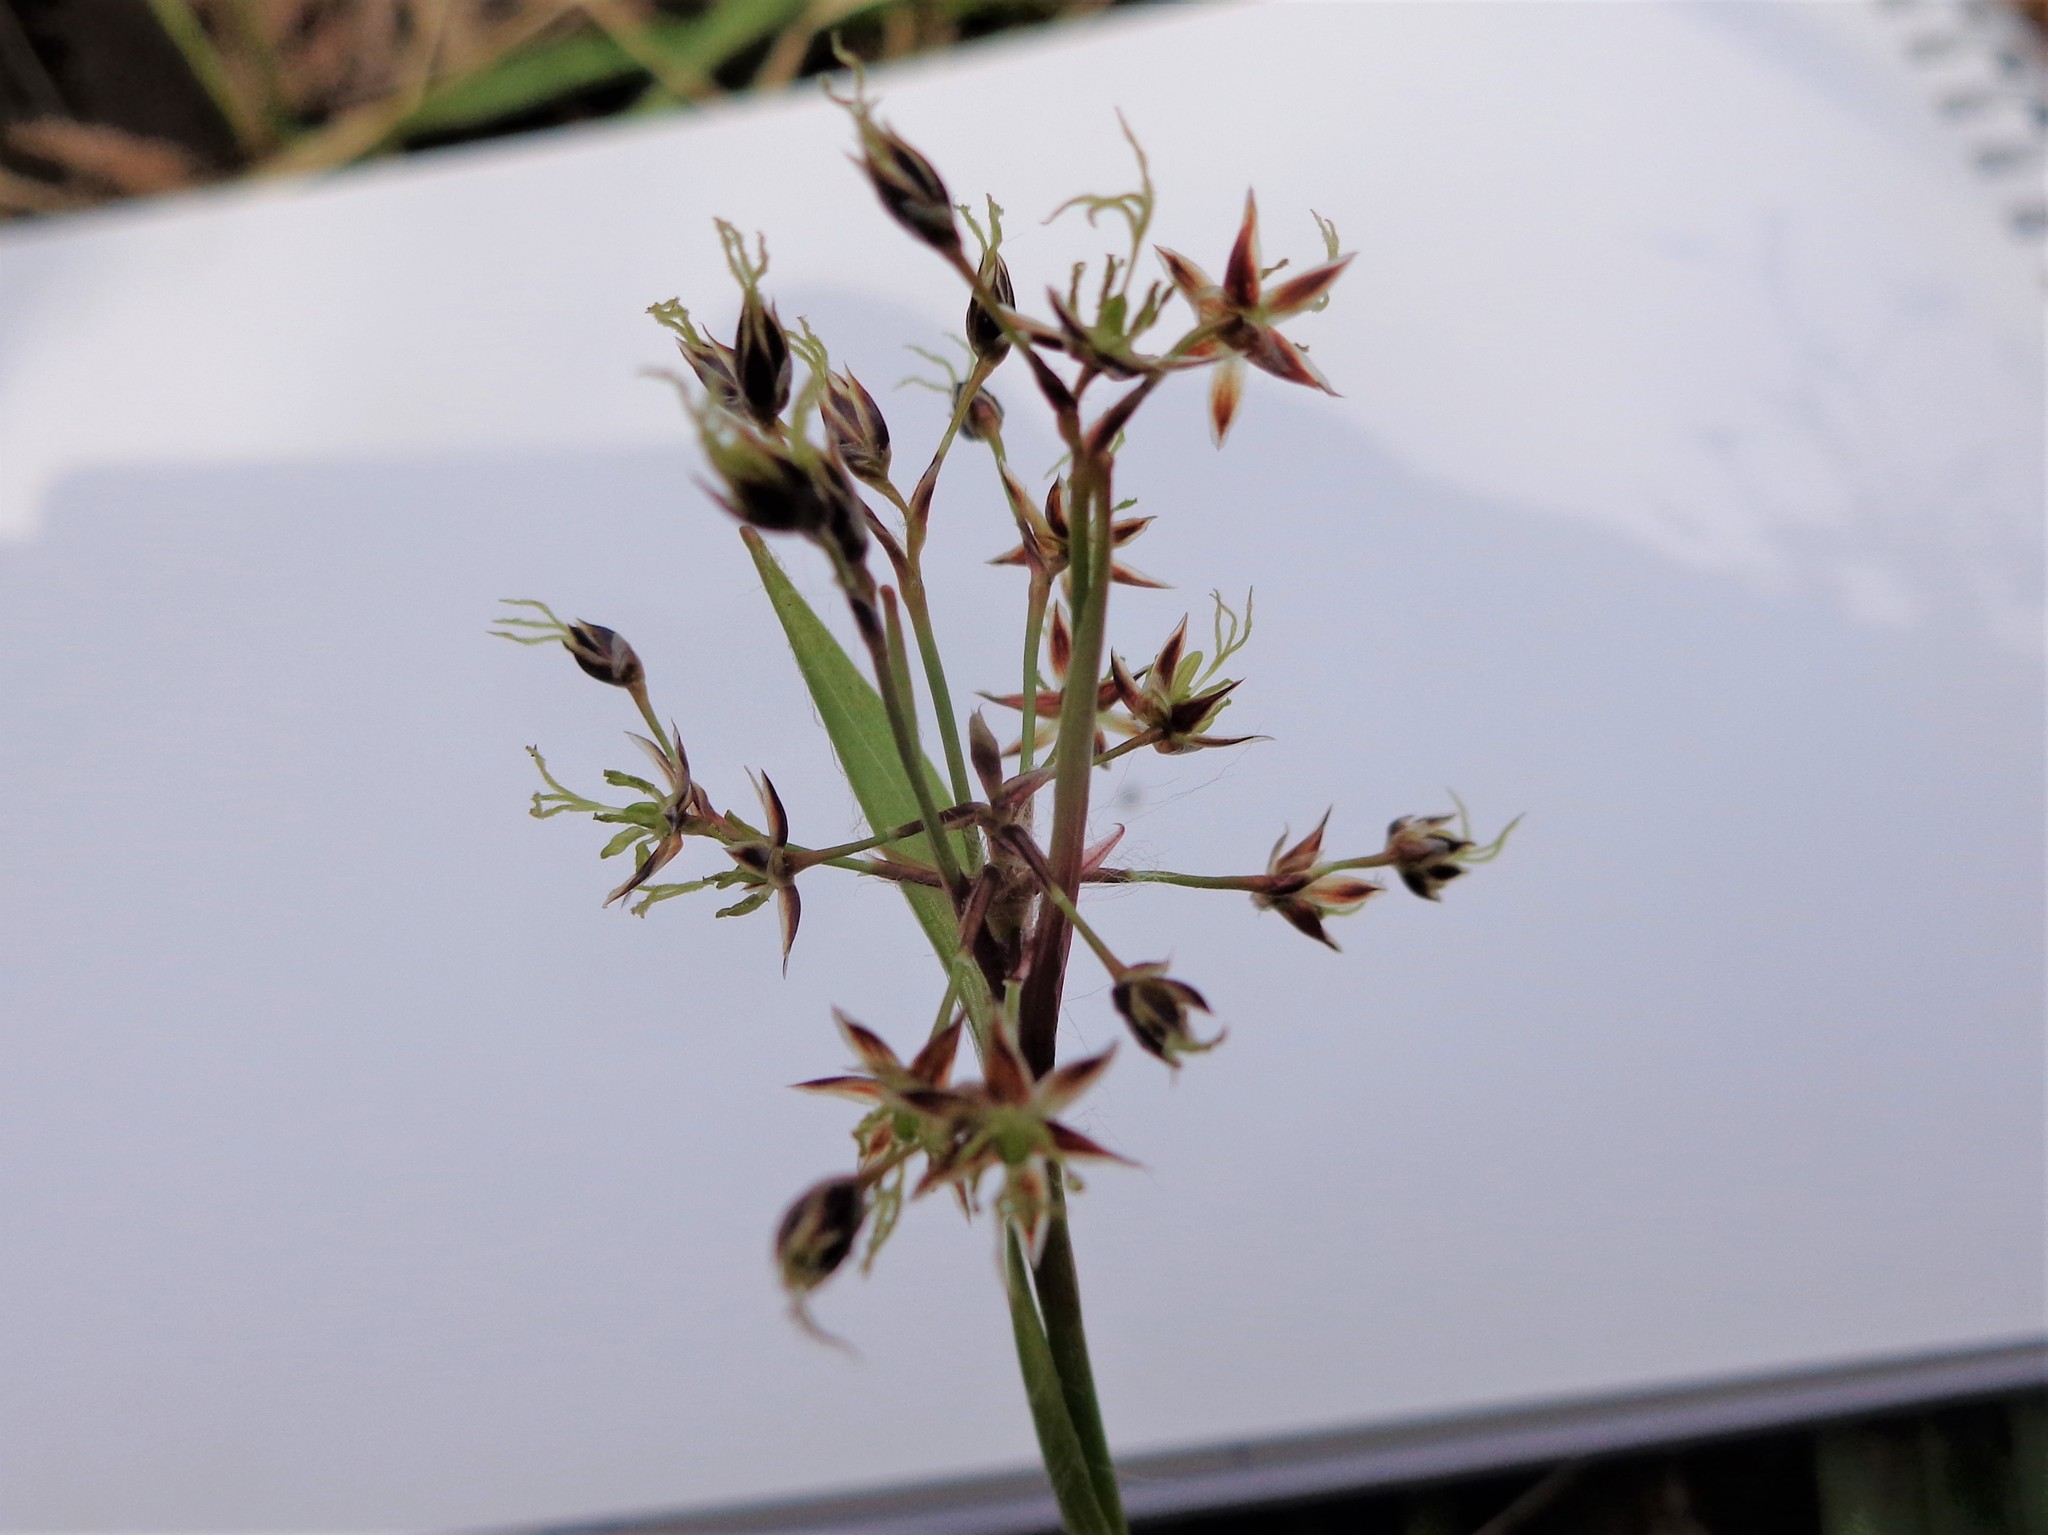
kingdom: Plantae
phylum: Tracheophyta
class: Liliopsida
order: Poales
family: Juncaceae
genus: Luzula
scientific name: Luzula pilosa
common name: Hairy wood-rush
